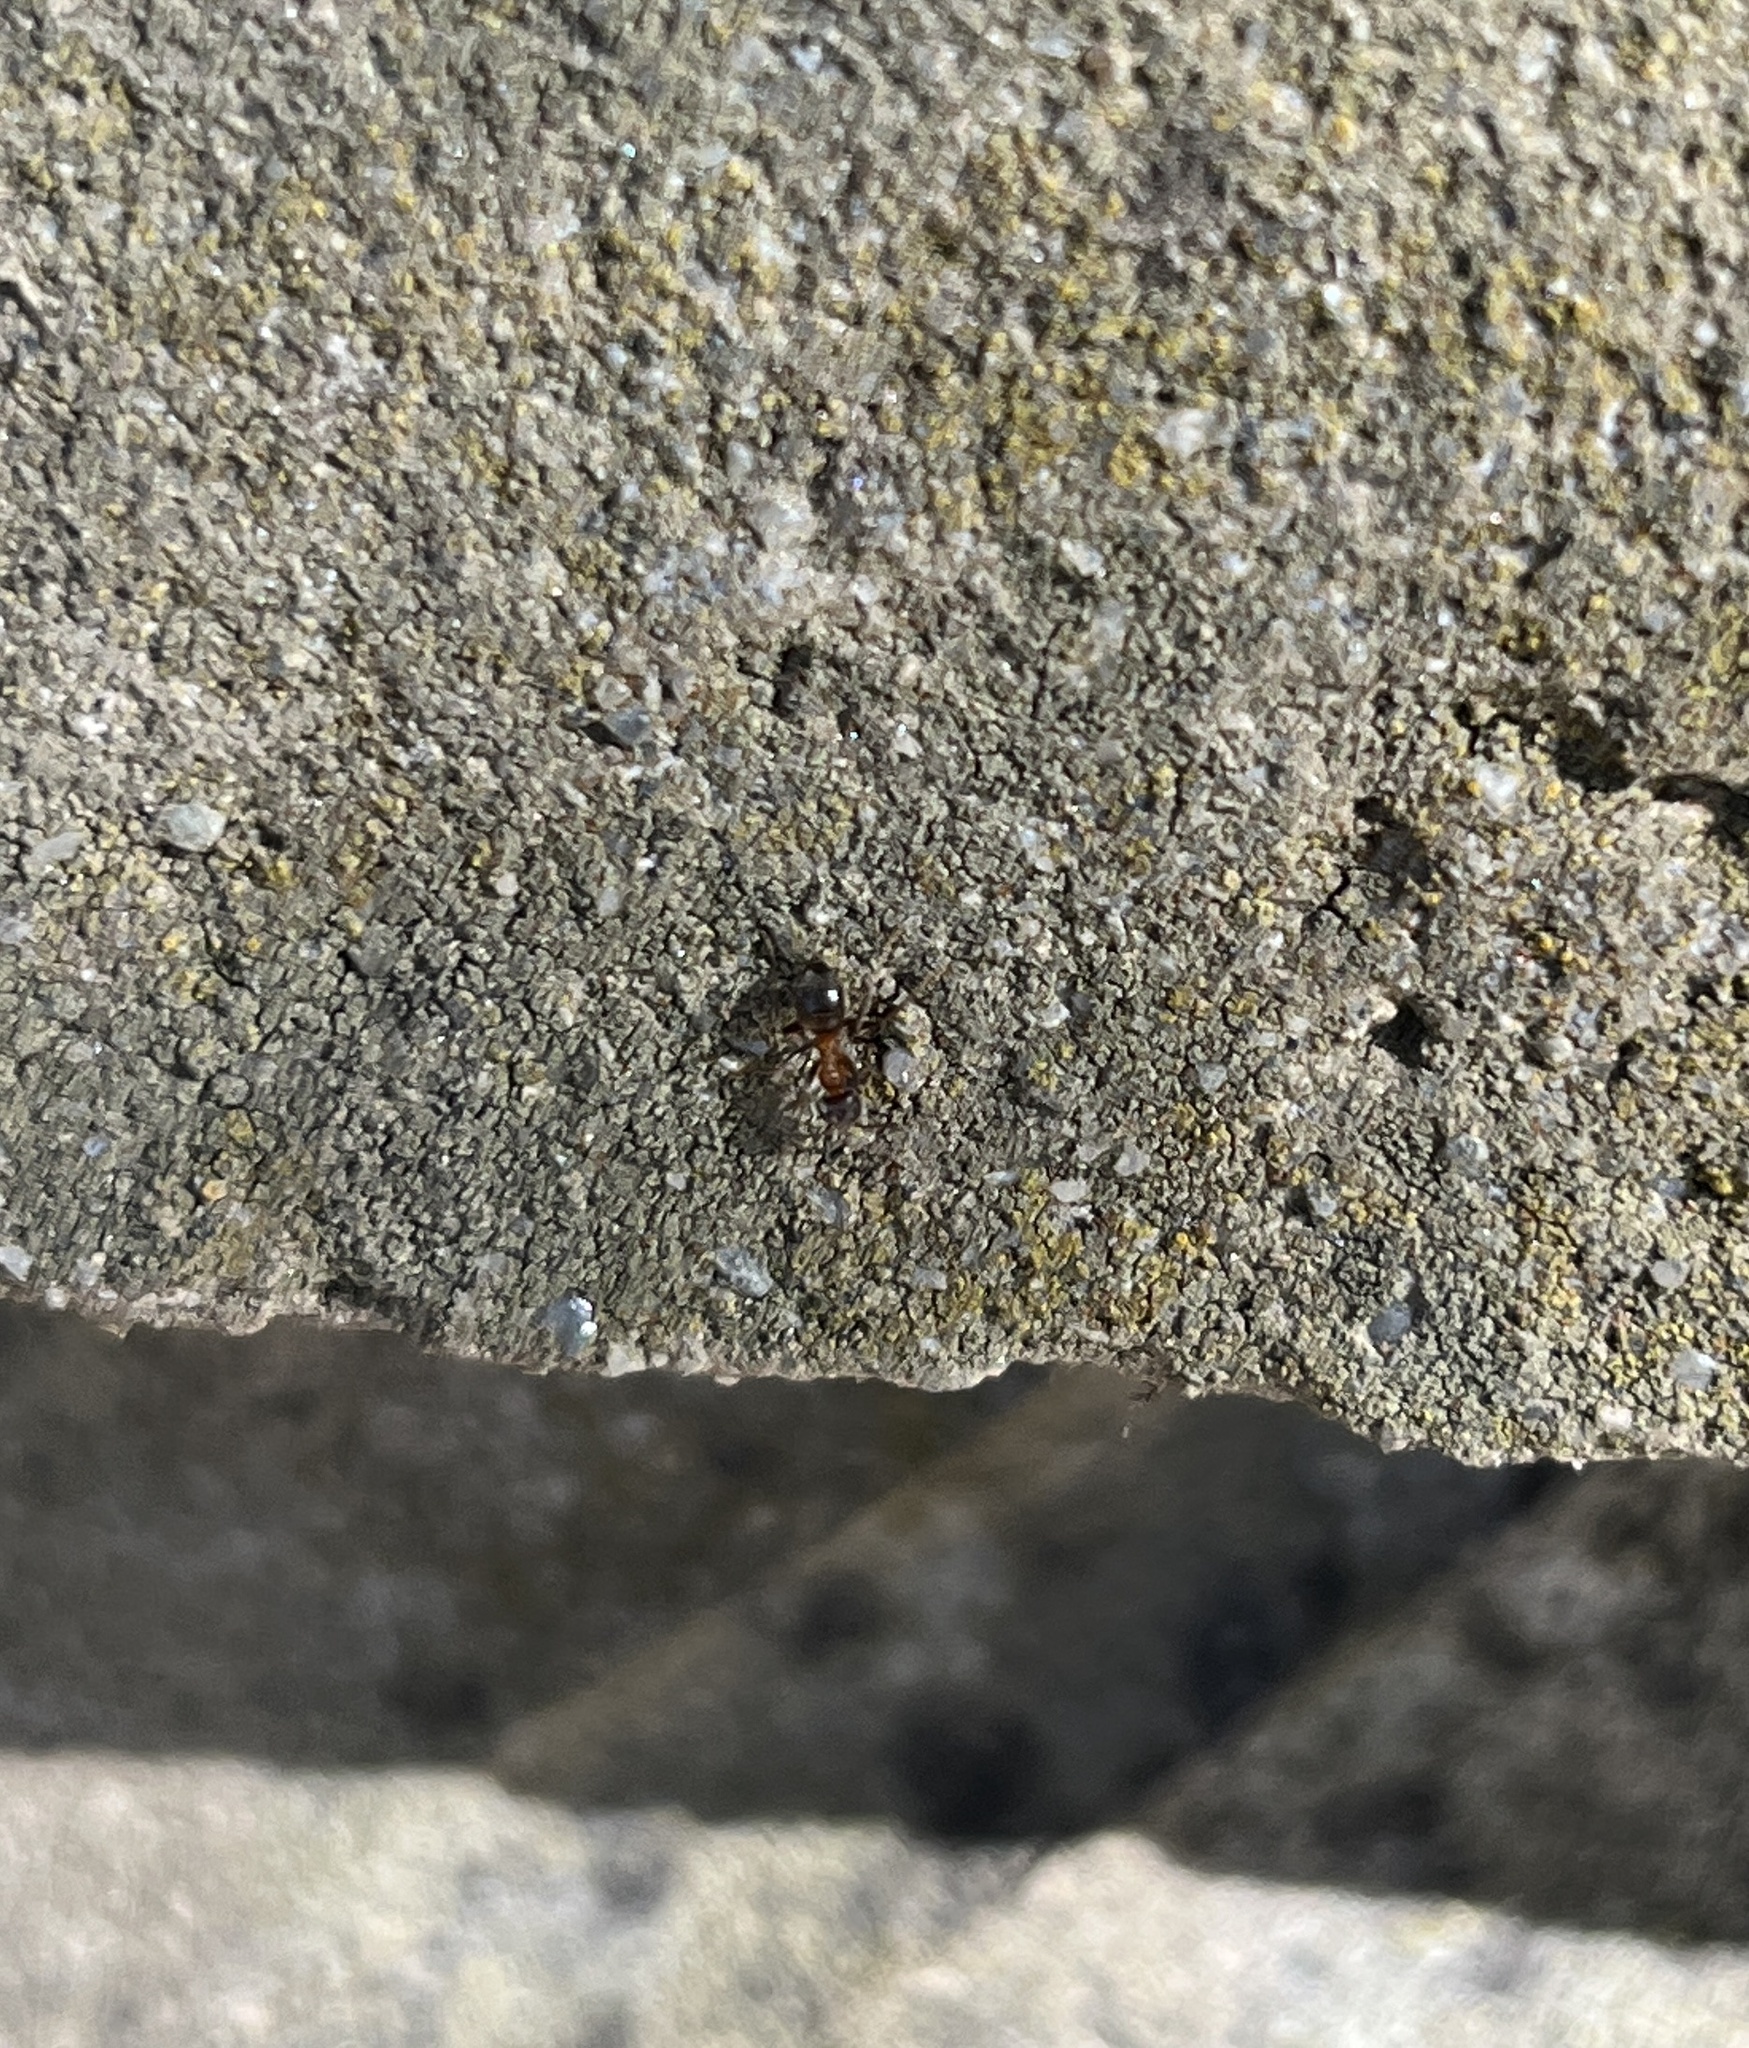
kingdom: Animalia
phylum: Arthropoda
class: Insecta
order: Hymenoptera
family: Formicidae
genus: Lasius
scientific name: Lasius emarginatus
